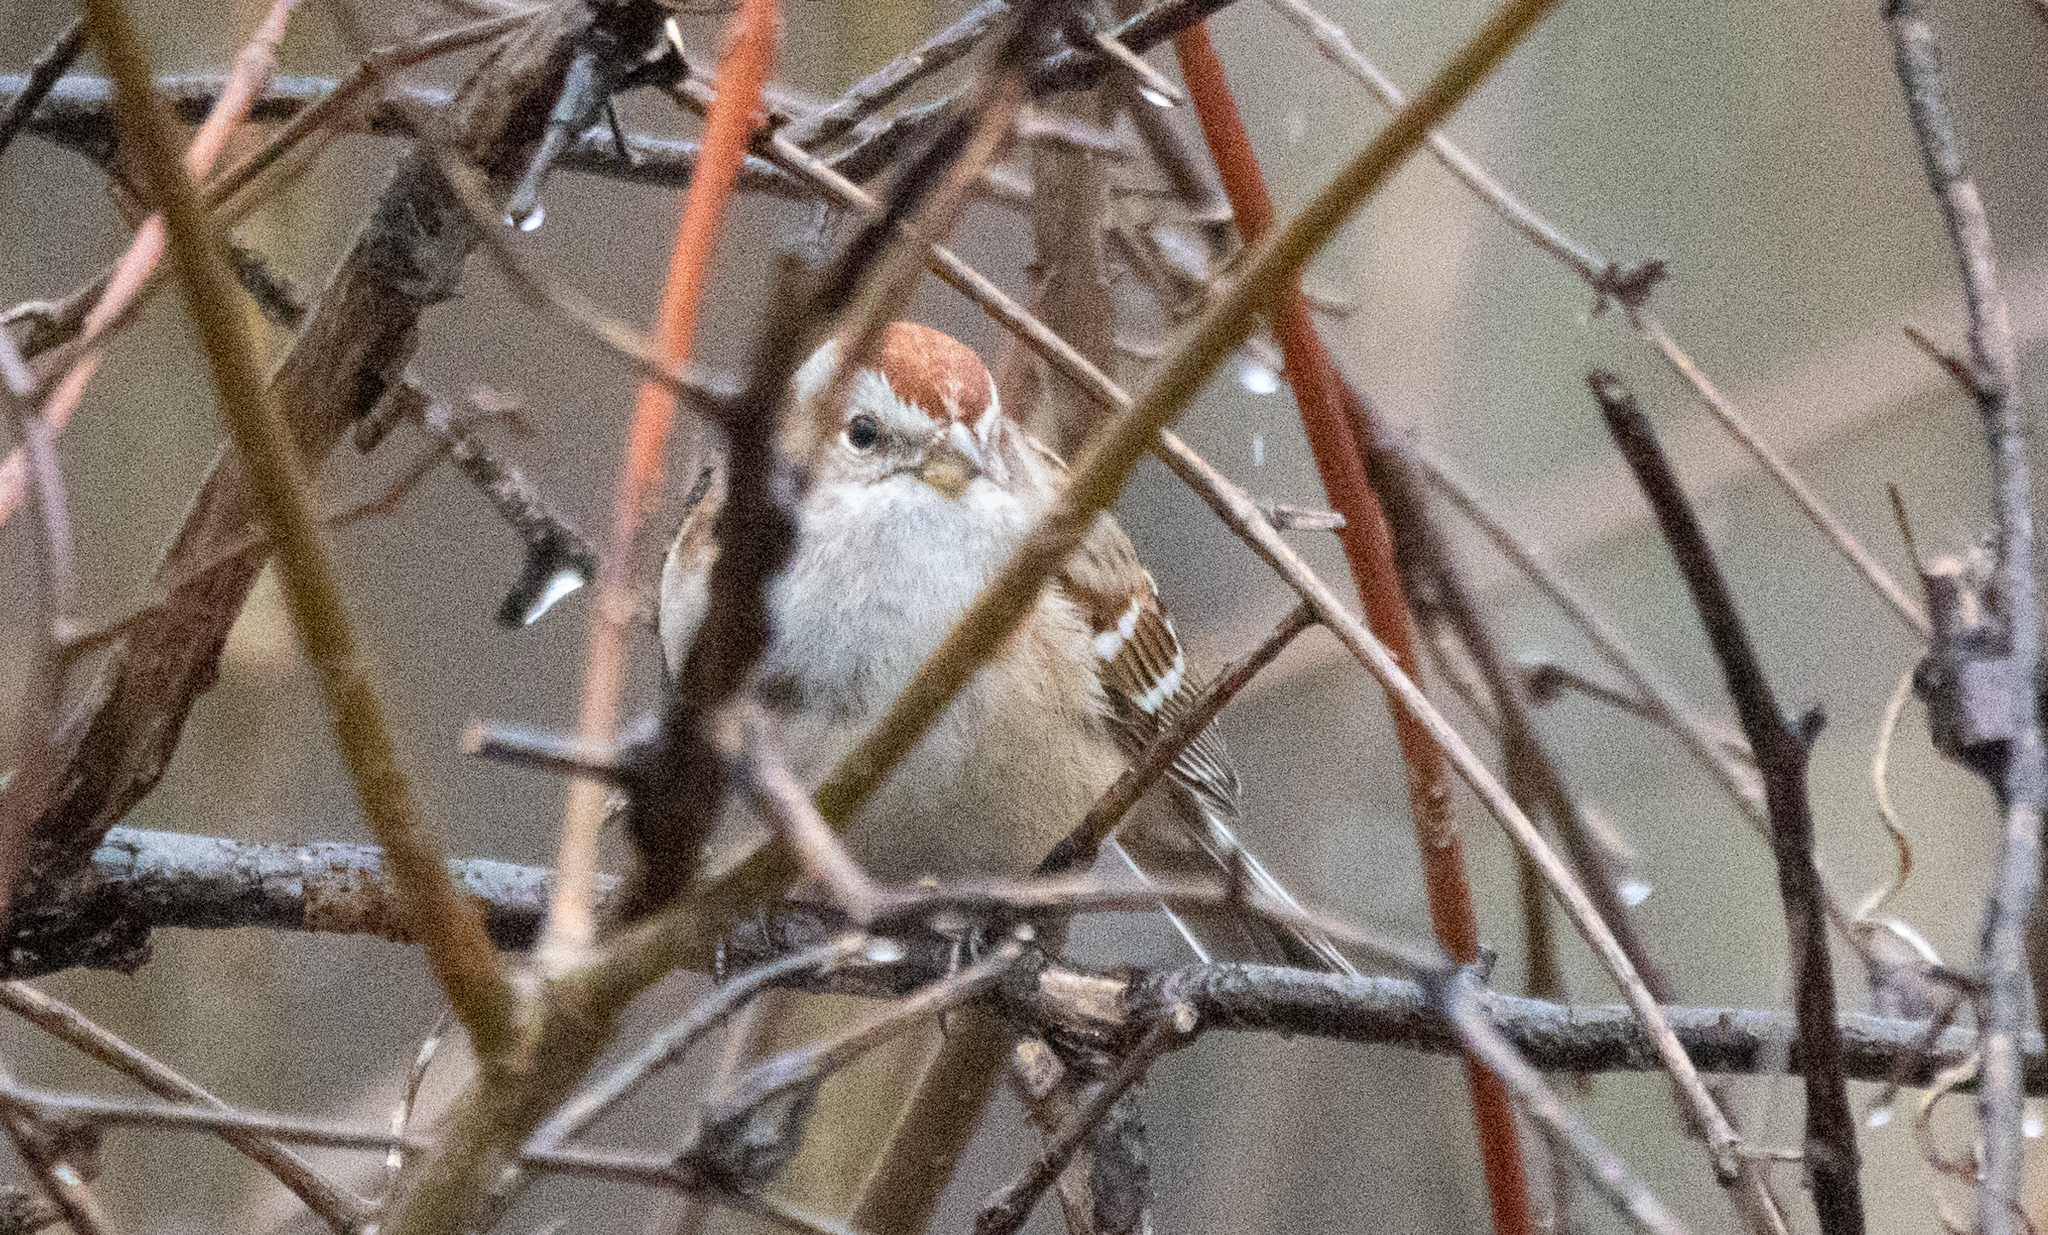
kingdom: Animalia
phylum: Chordata
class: Aves
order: Passeriformes
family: Passerellidae
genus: Spizelloides
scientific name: Spizelloides arborea
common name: American tree sparrow
